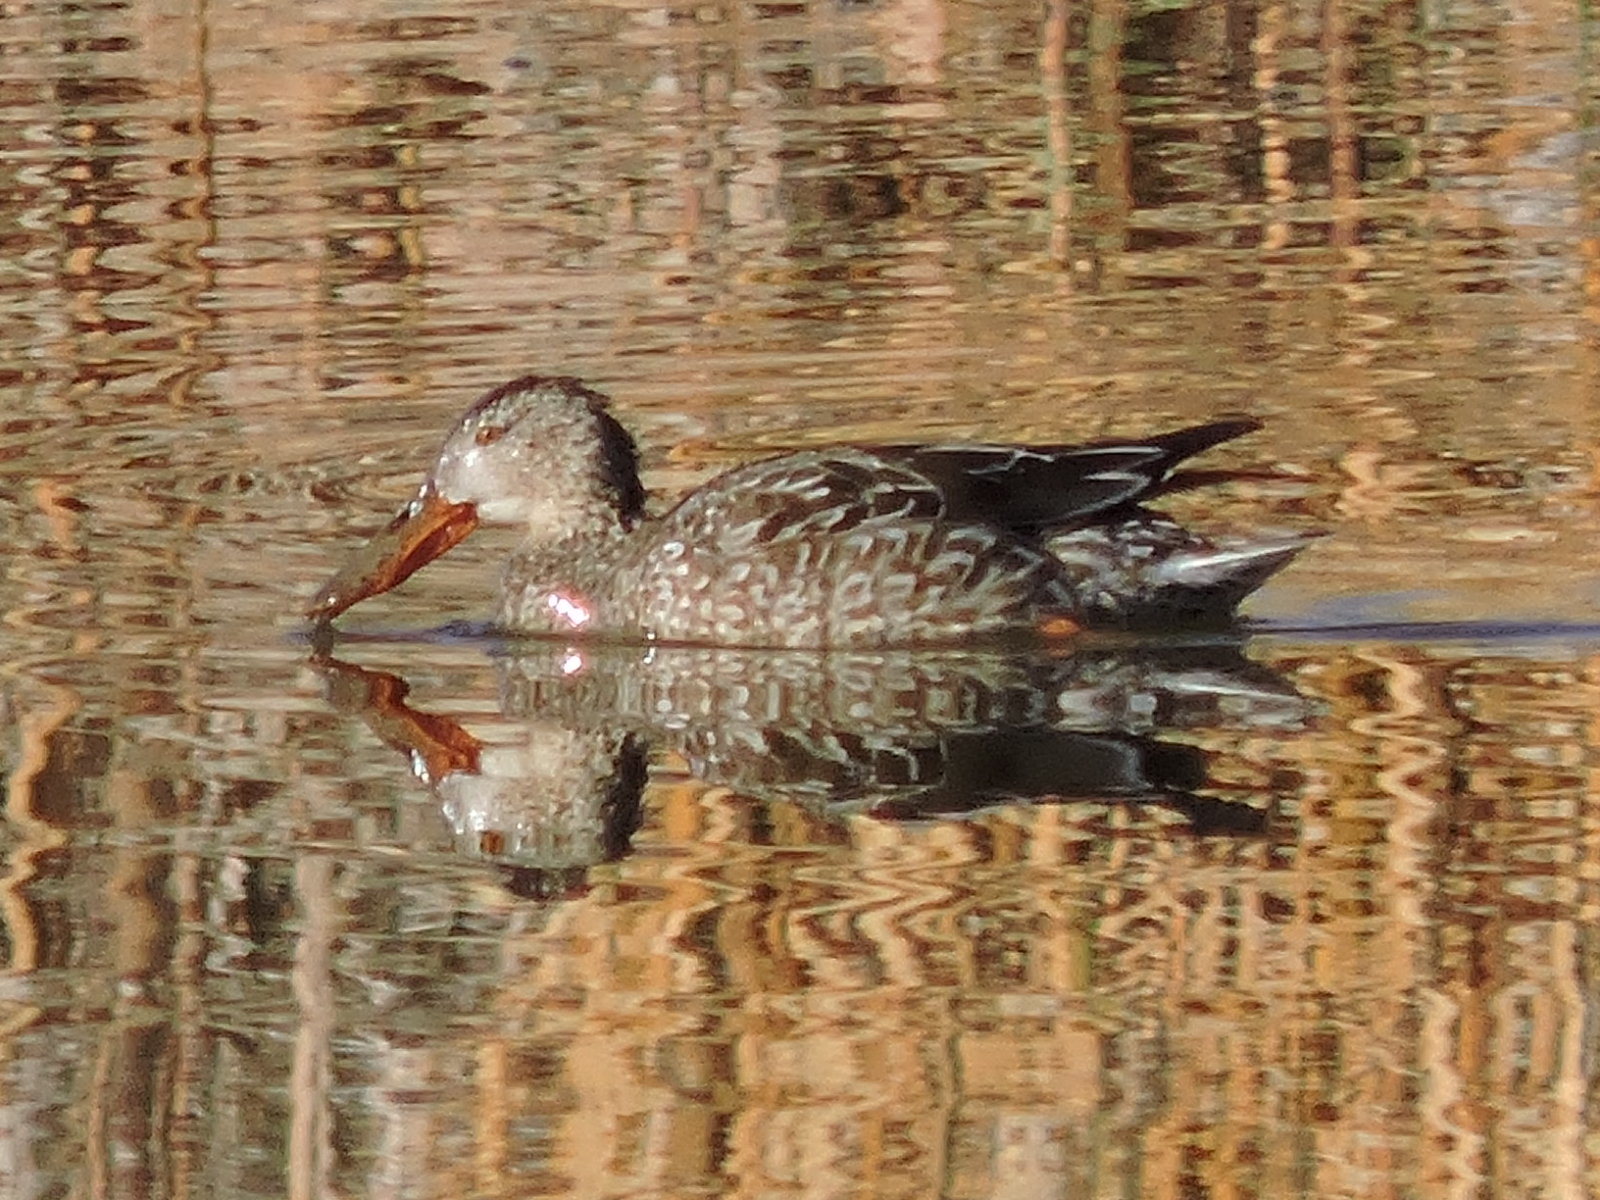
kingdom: Animalia
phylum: Chordata
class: Aves
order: Anseriformes
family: Anatidae
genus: Spatula
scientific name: Spatula clypeata
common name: Northern shoveler
